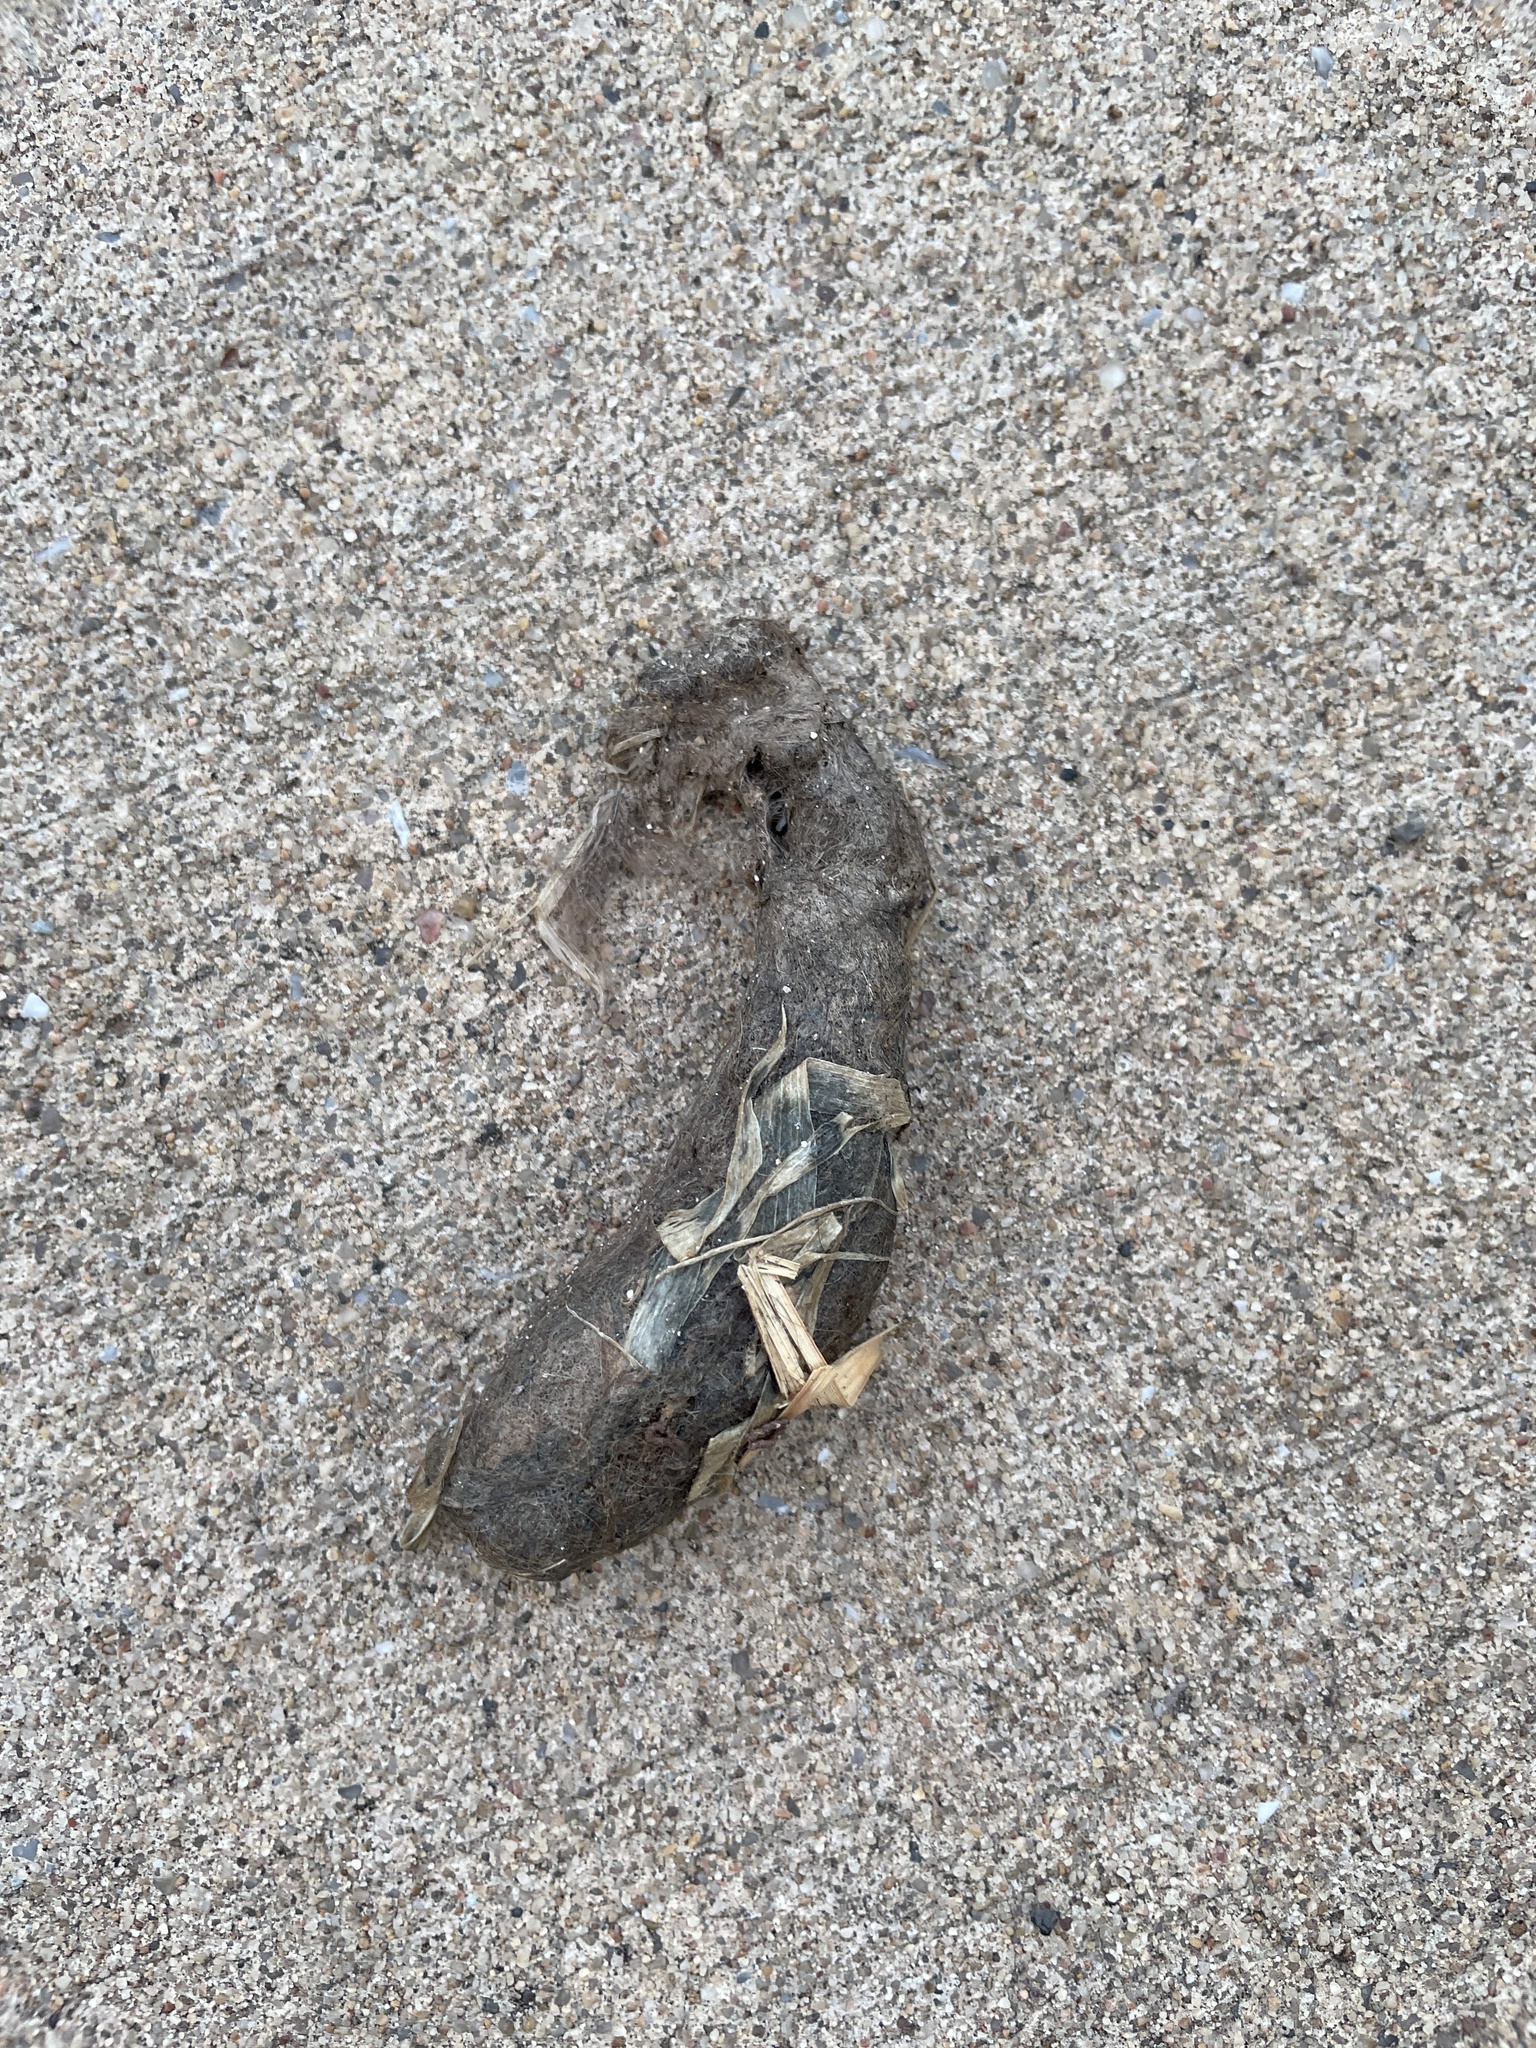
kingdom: Animalia
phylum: Chordata
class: Mammalia
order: Carnivora
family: Felidae
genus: Felis
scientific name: Felis catus
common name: Domestic cat
